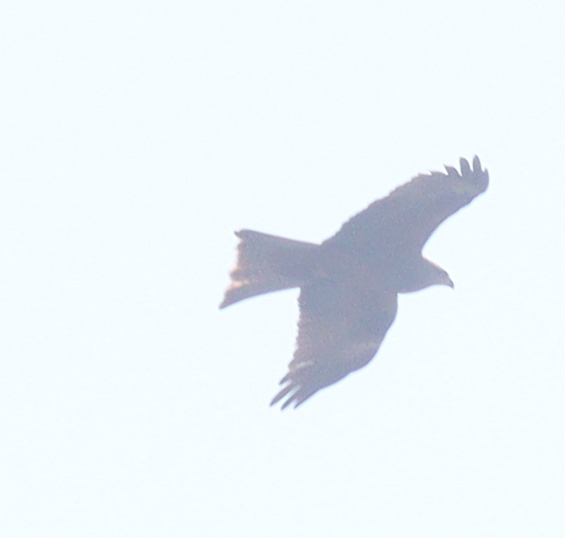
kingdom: Animalia
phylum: Chordata
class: Aves
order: Accipitriformes
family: Accipitridae
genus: Milvus
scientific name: Milvus migrans
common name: Black kite
